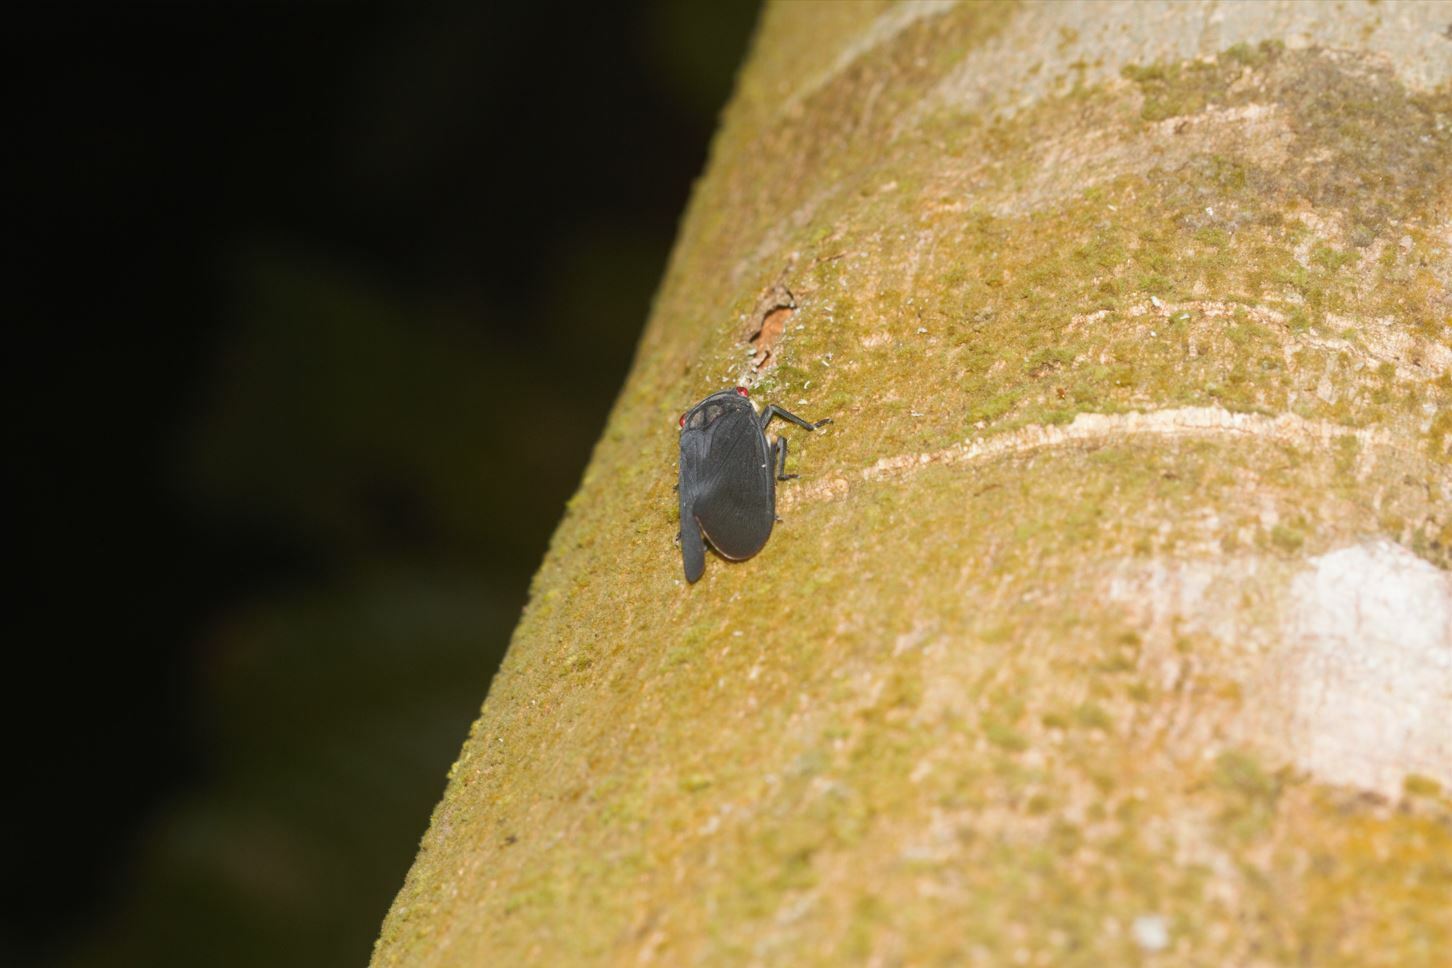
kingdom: Animalia
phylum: Arthropoda
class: Insecta
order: Hemiptera
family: Fulgoridae
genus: Acraephia
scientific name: Acraephia perspicillata
